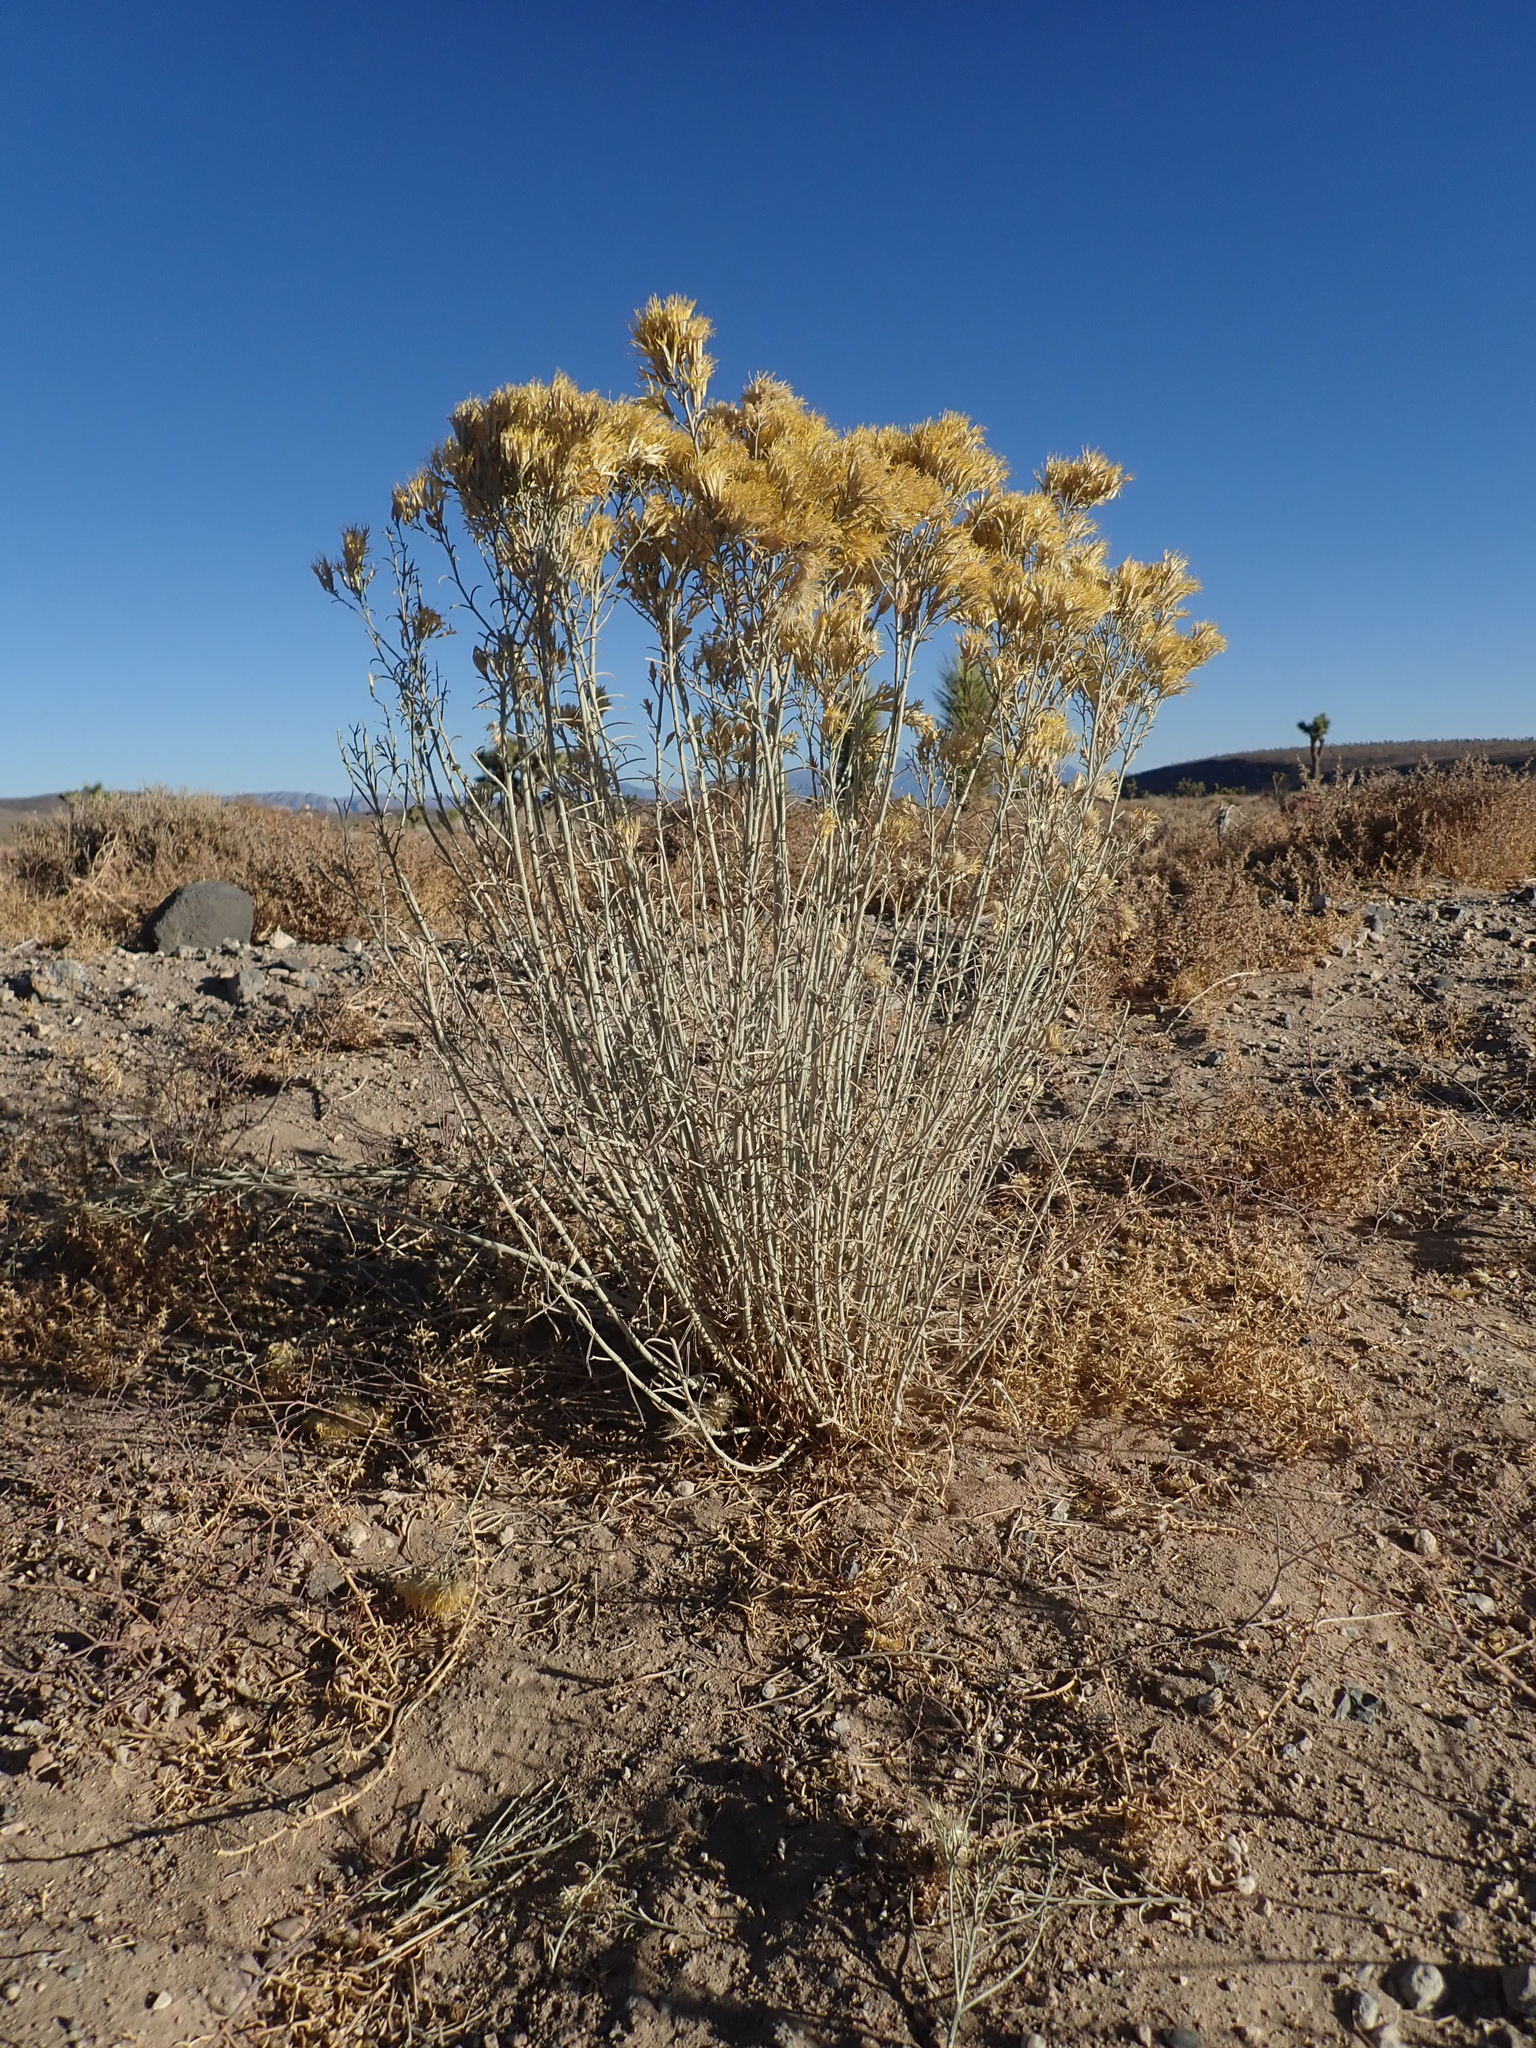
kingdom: Plantae
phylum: Tracheophyta
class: Magnoliopsida
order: Asterales
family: Asteraceae
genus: Ericameria
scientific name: Ericameria nauseosa
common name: Rubber rabbitbrush
